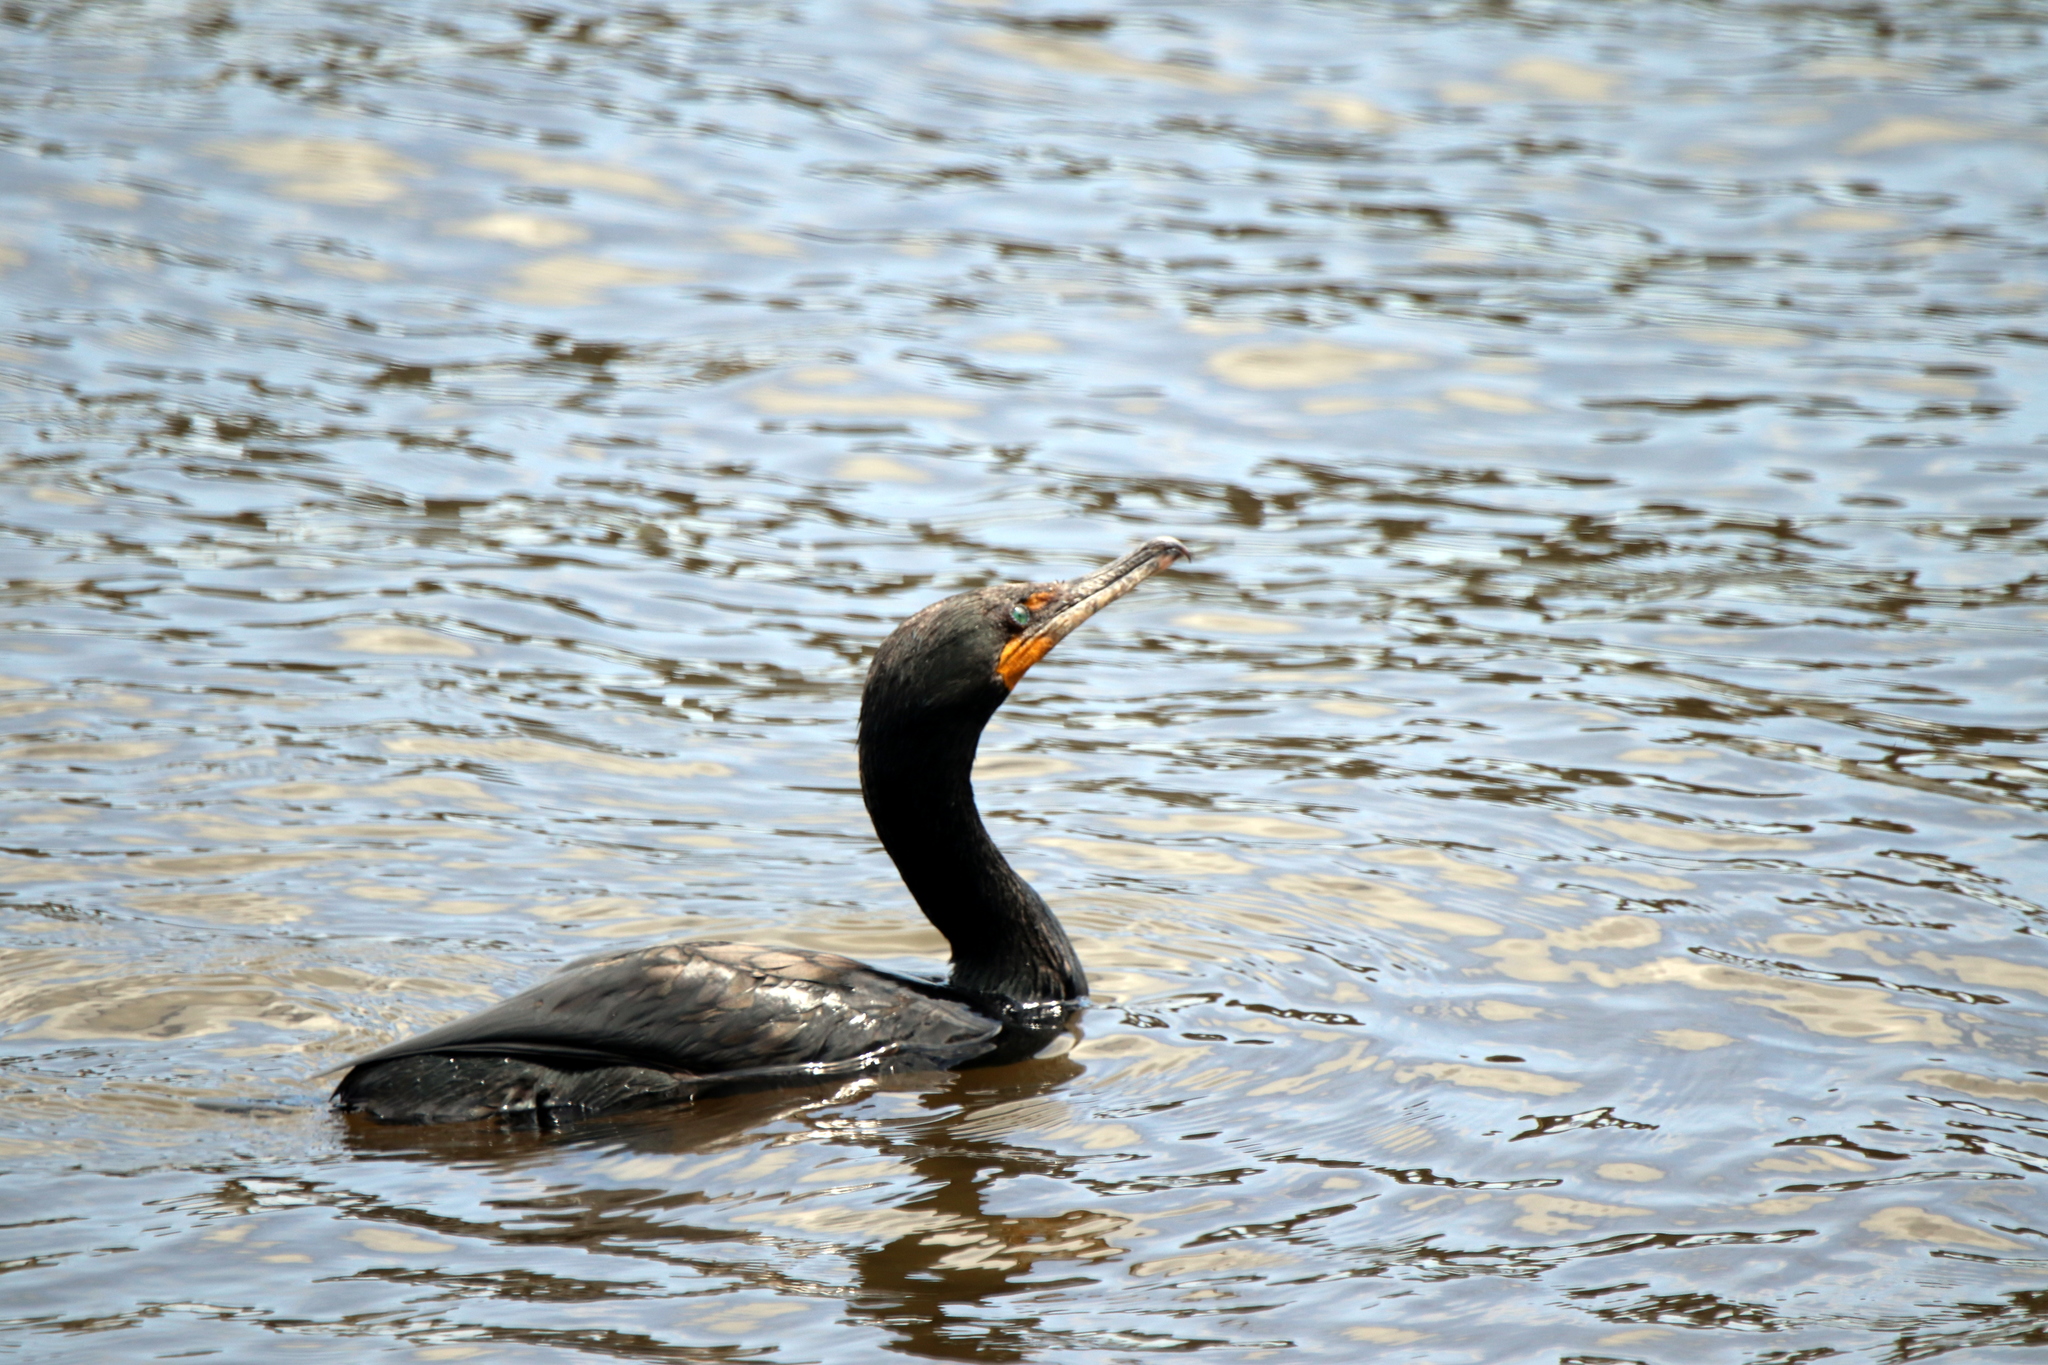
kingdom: Animalia
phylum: Chordata
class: Aves
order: Suliformes
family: Phalacrocoracidae
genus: Phalacrocorax
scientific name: Phalacrocorax auritus
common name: Double-crested cormorant
